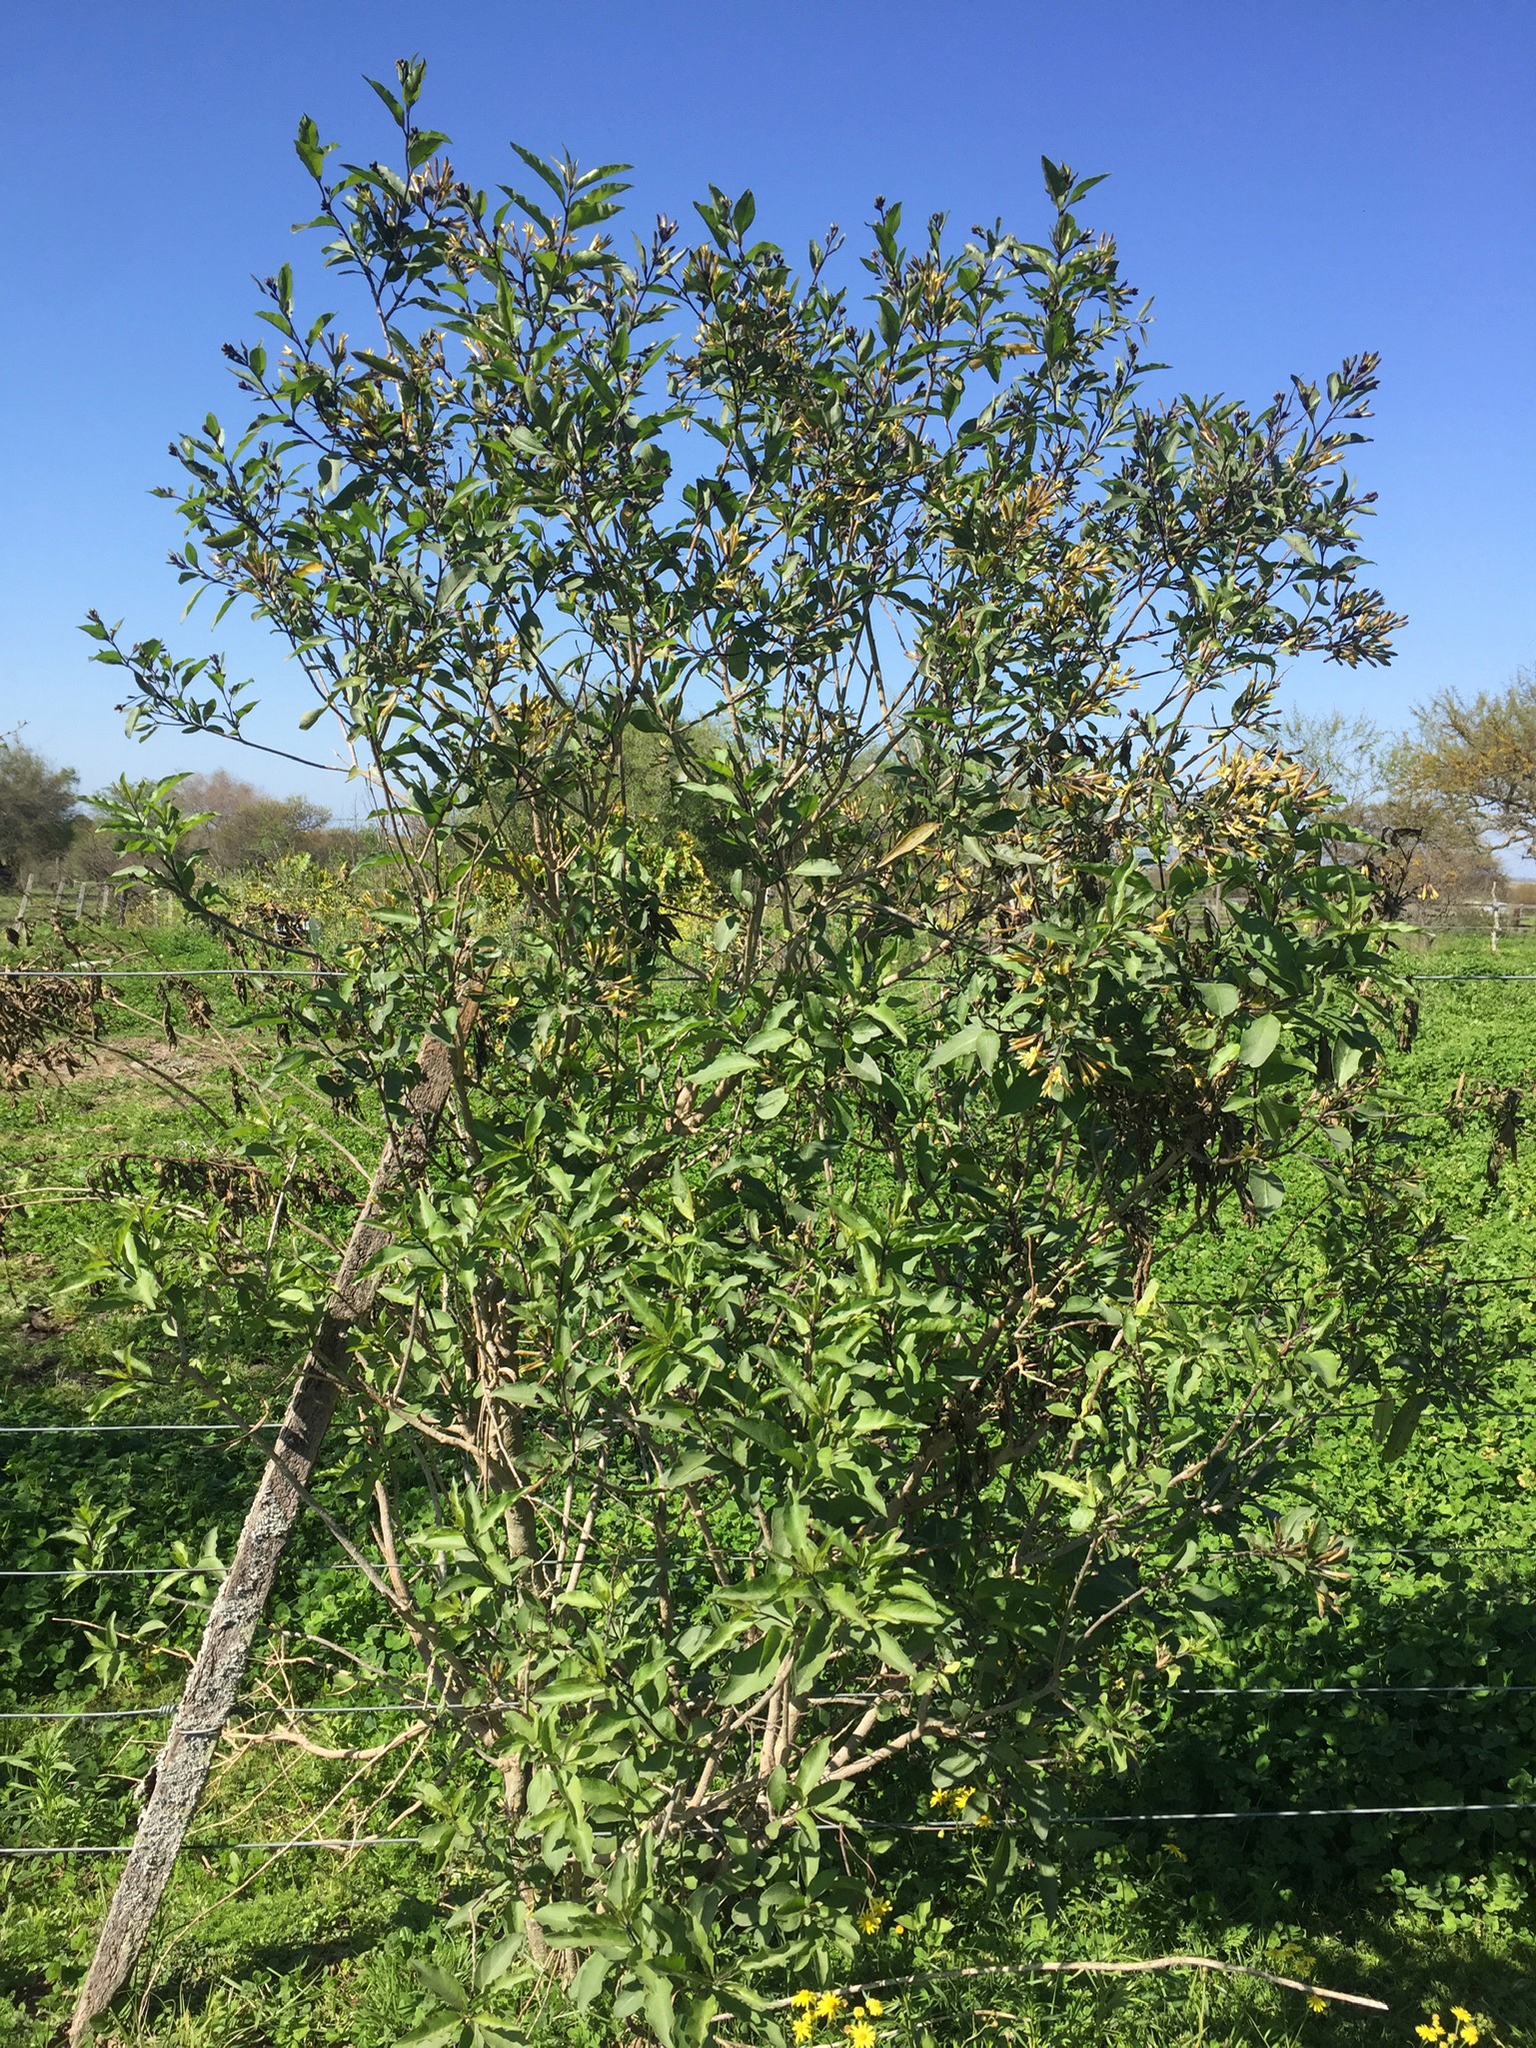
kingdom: Plantae
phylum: Tracheophyta
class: Magnoliopsida
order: Solanales
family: Solanaceae
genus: Cestrum
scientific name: Cestrum parqui
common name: Chilean cestrum
